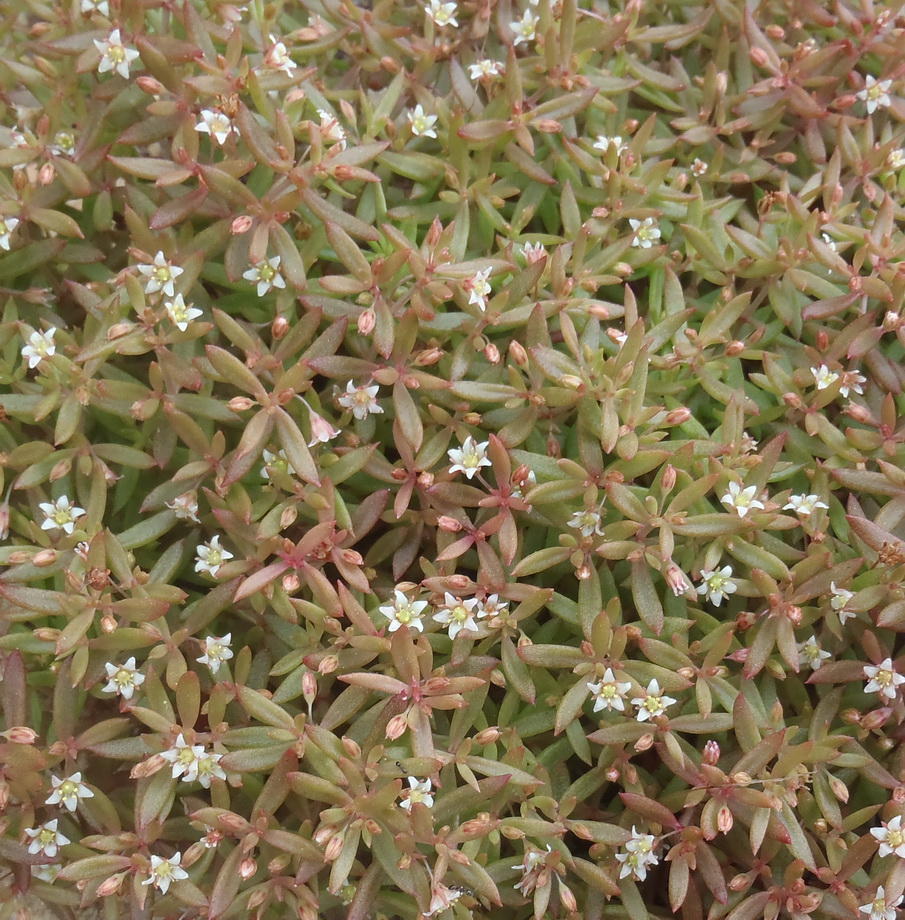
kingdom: Plantae
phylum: Tracheophyta
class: Magnoliopsida
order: Saxifragales
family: Crassulaceae
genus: Crassula
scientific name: Crassula expansa
